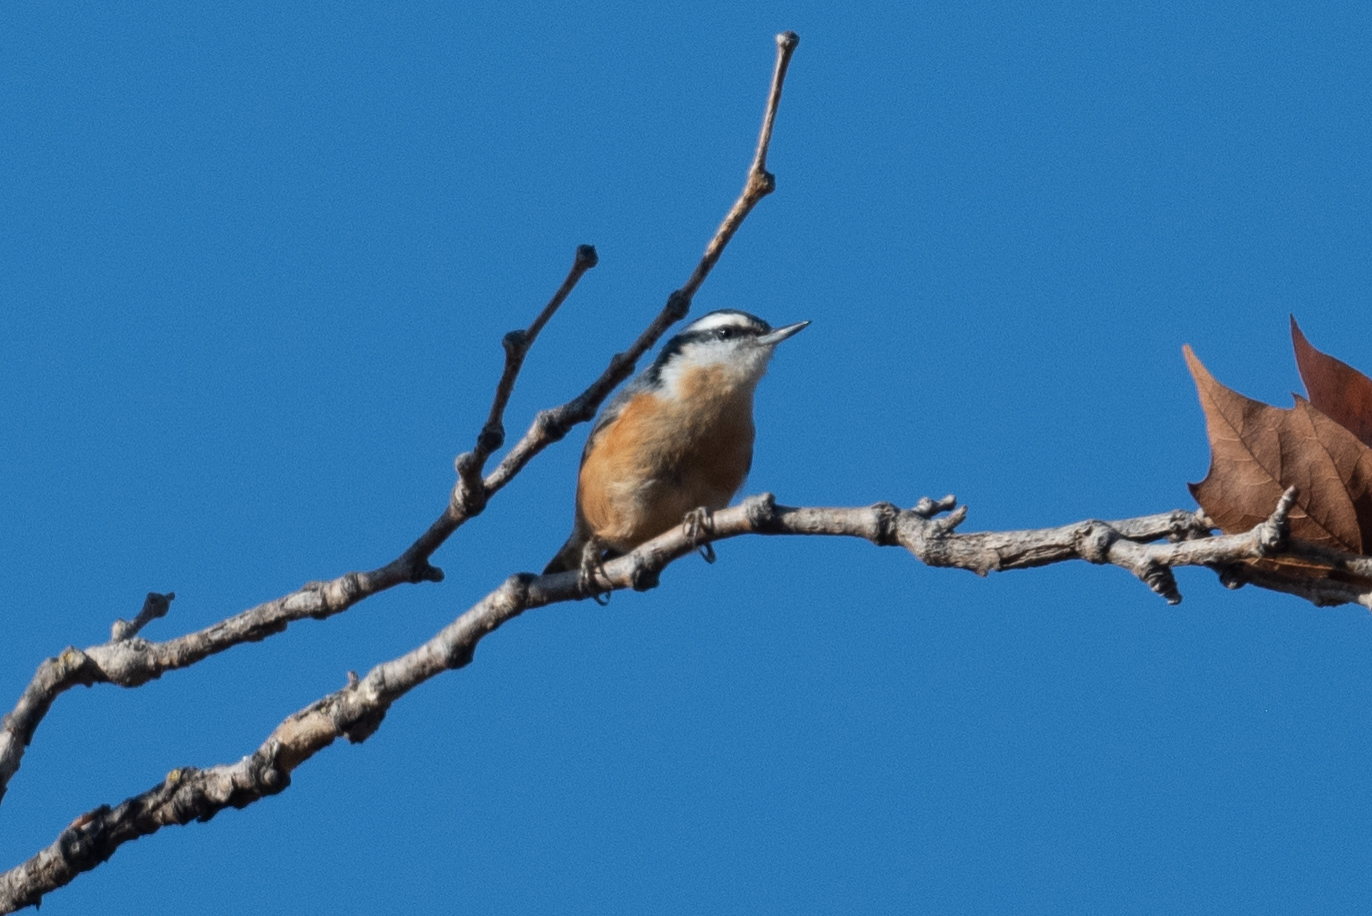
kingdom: Animalia
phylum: Chordata
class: Aves
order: Passeriformes
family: Sittidae
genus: Sitta
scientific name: Sitta canadensis
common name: Red-breasted nuthatch
